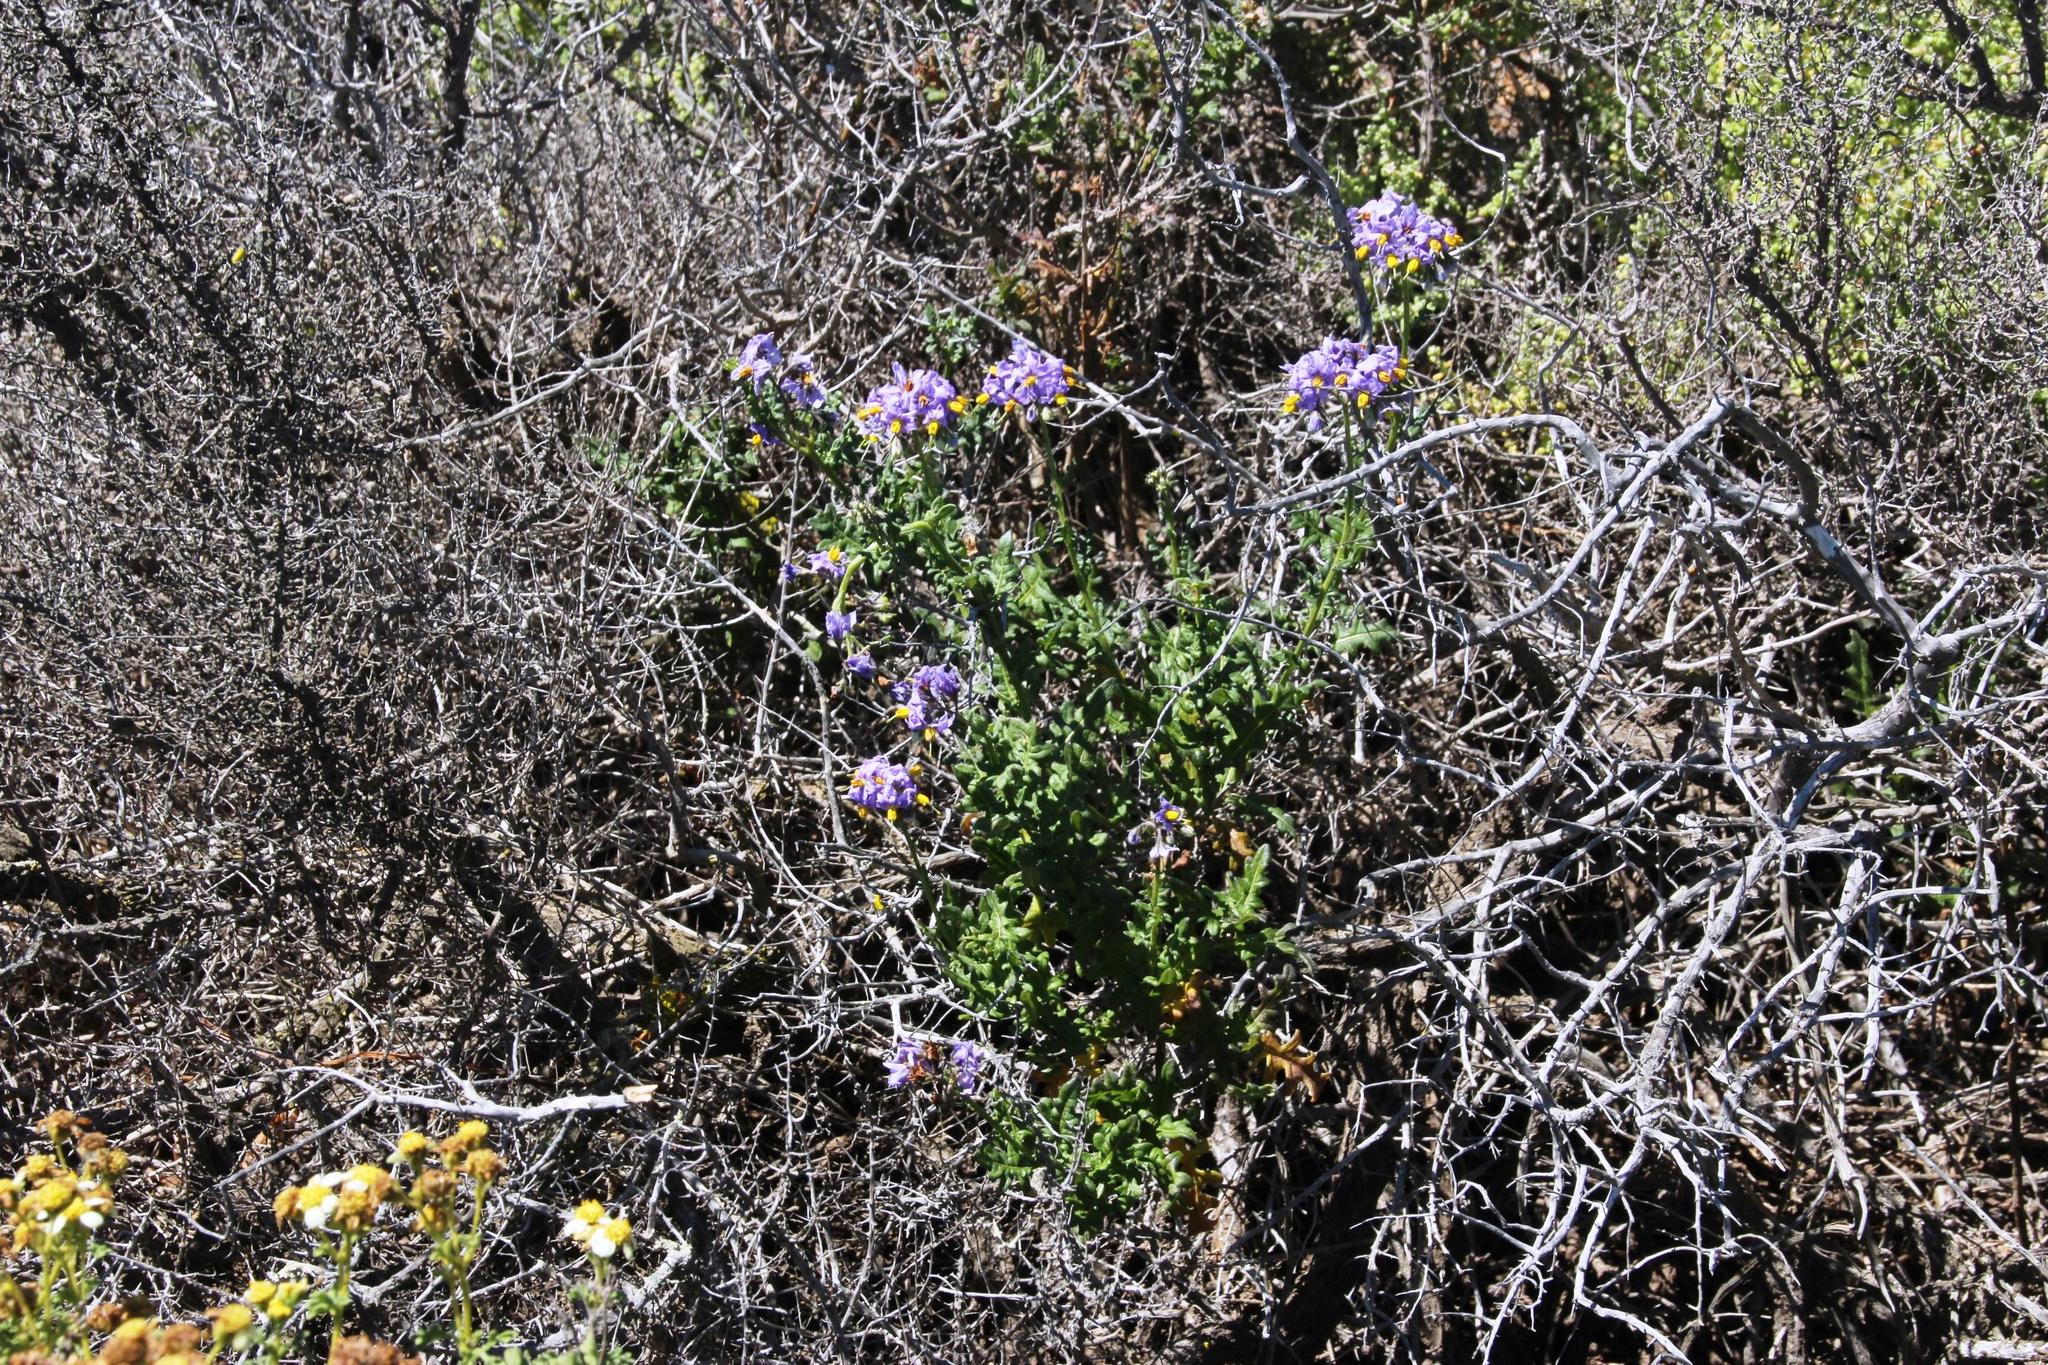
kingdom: Plantae
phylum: Tracheophyta
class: Magnoliopsida
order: Solanales
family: Solanaceae
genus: Solanum
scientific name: Solanum pinnatum
